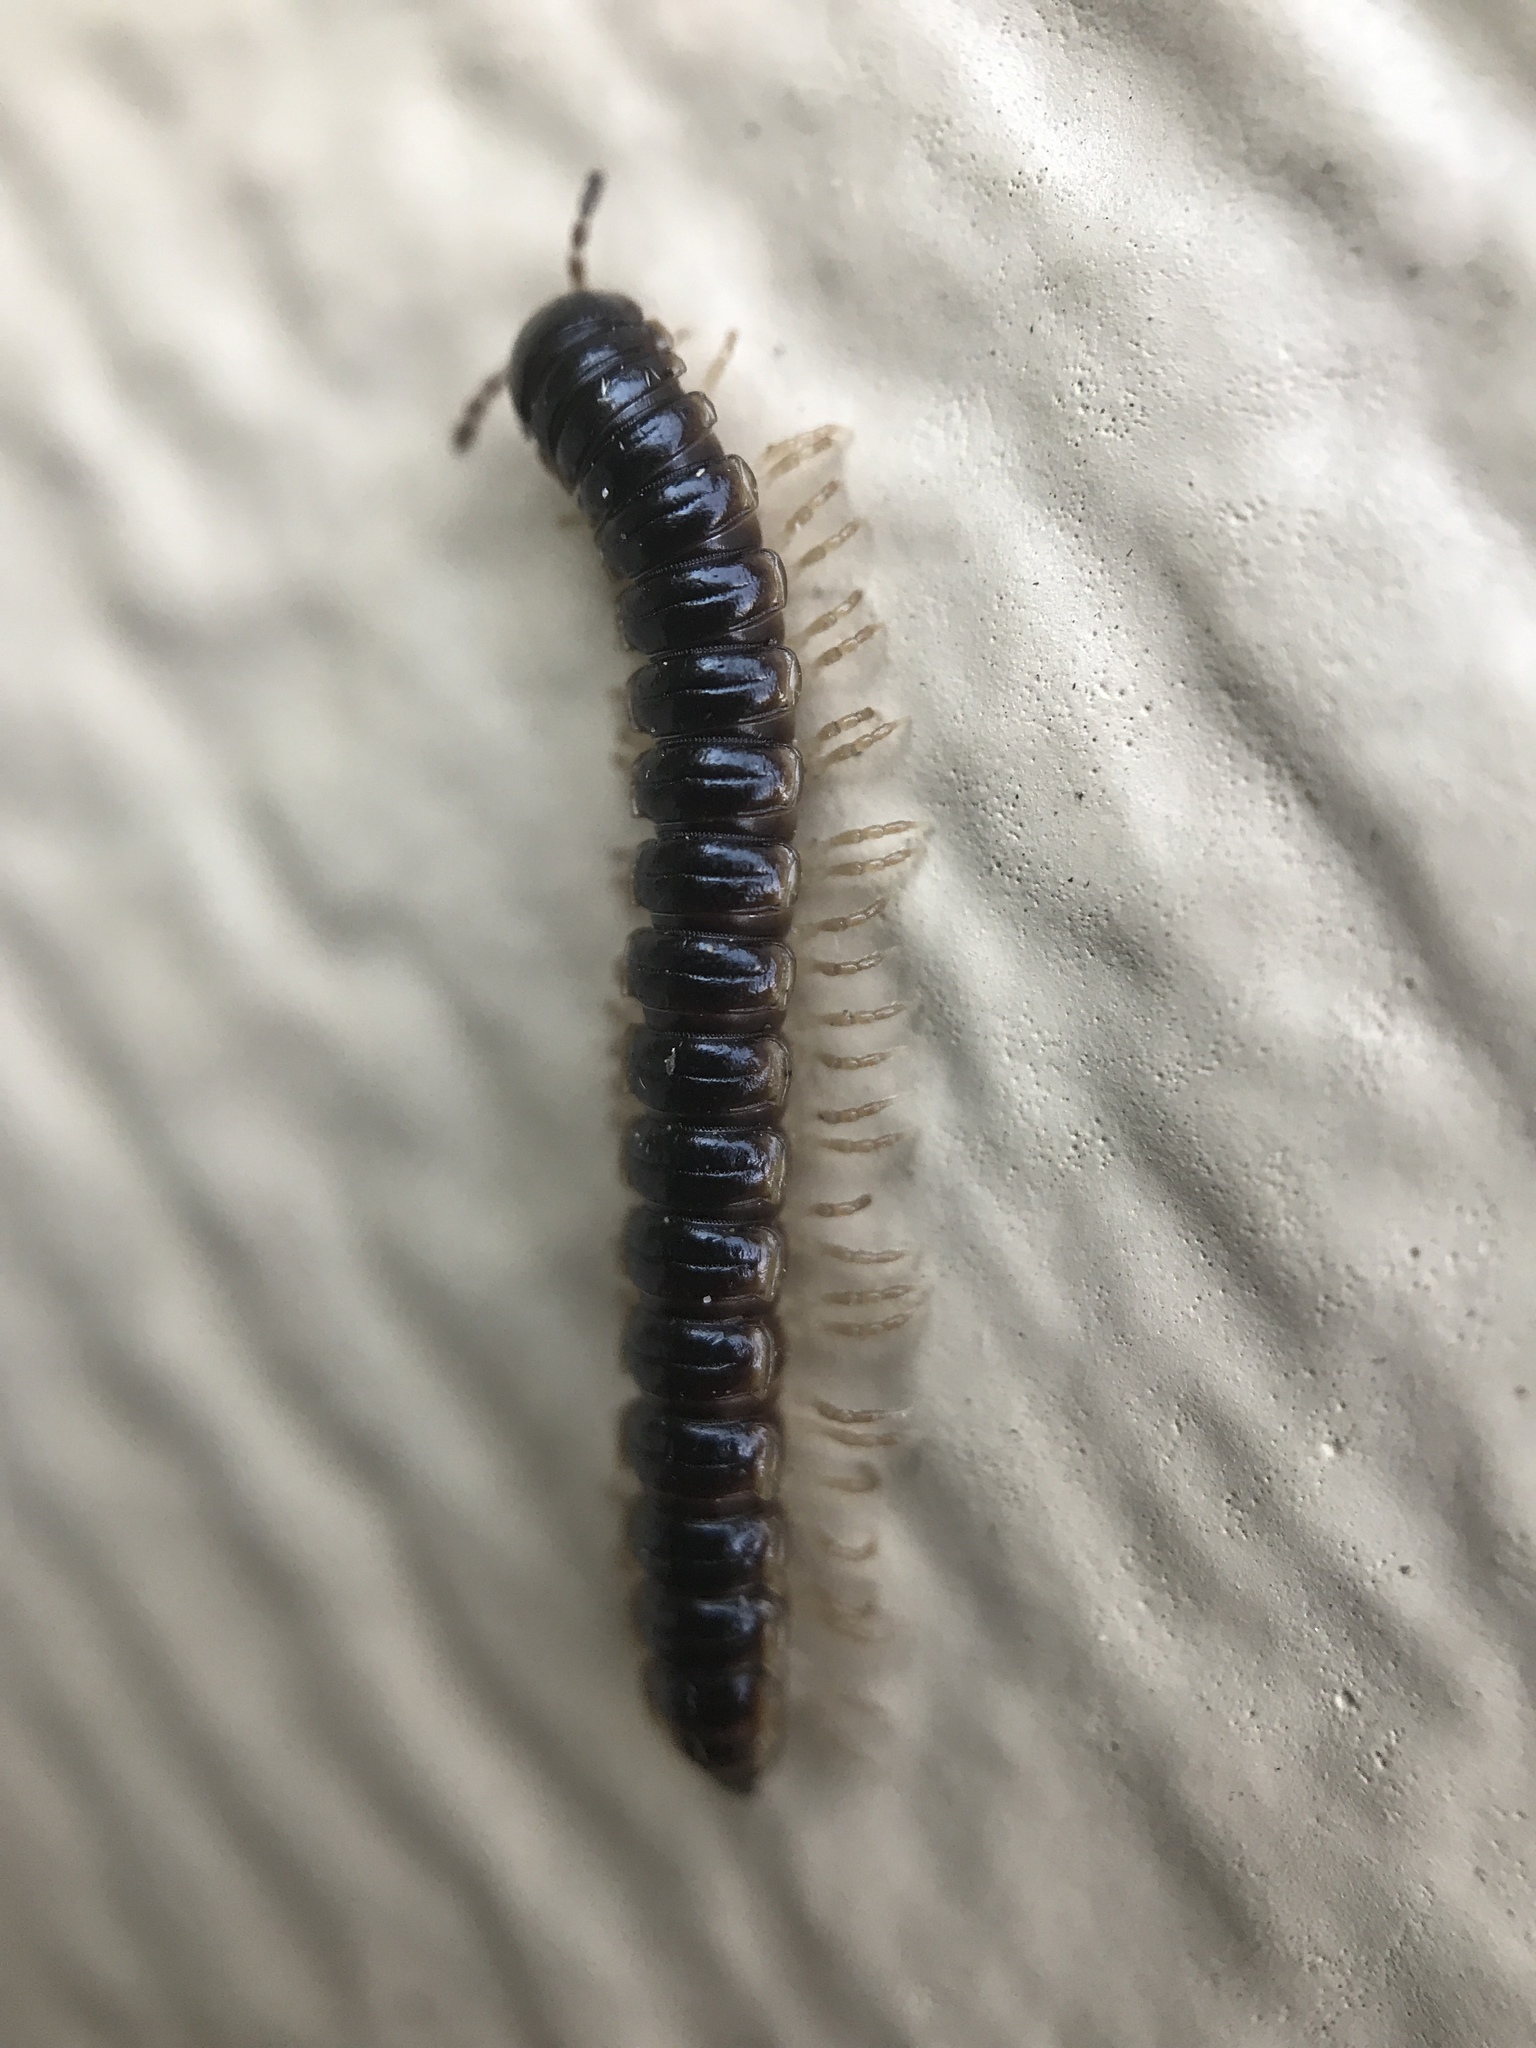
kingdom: Animalia
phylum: Arthropoda
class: Diplopoda
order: Polydesmida
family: Paradoxosomatidae
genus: Oxidus
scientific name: Oxidus gracilis
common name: Greenhouse millipede
